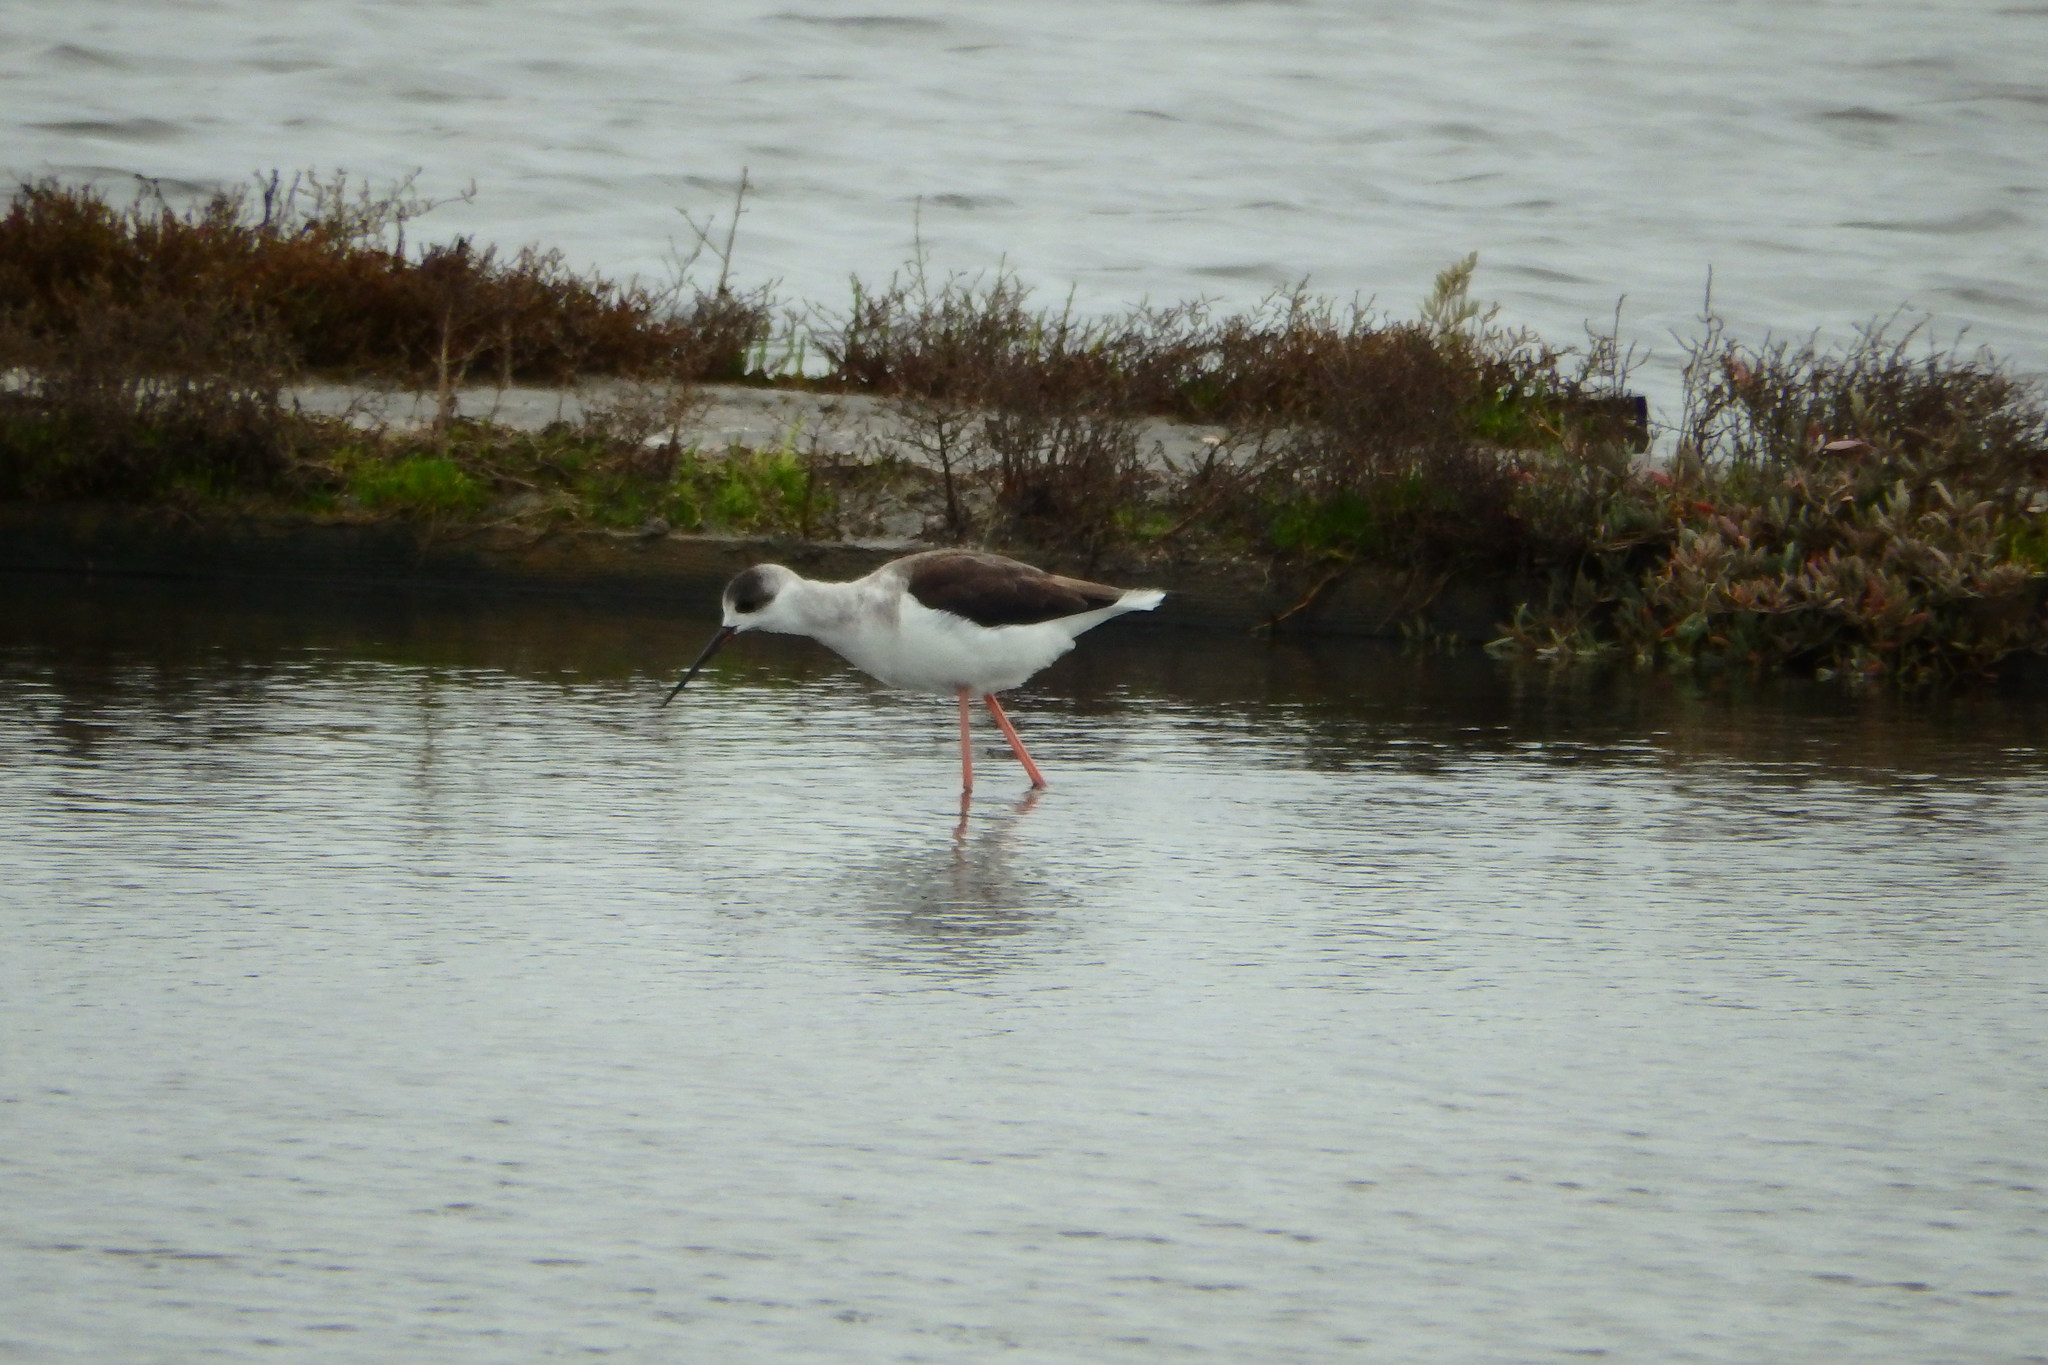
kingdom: Animalia
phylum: Chordata
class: Aves
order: Charadriiformes
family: Recurvirostridae
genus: Himantopus
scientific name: Himantopus himantopus
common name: Black-winged stilt
